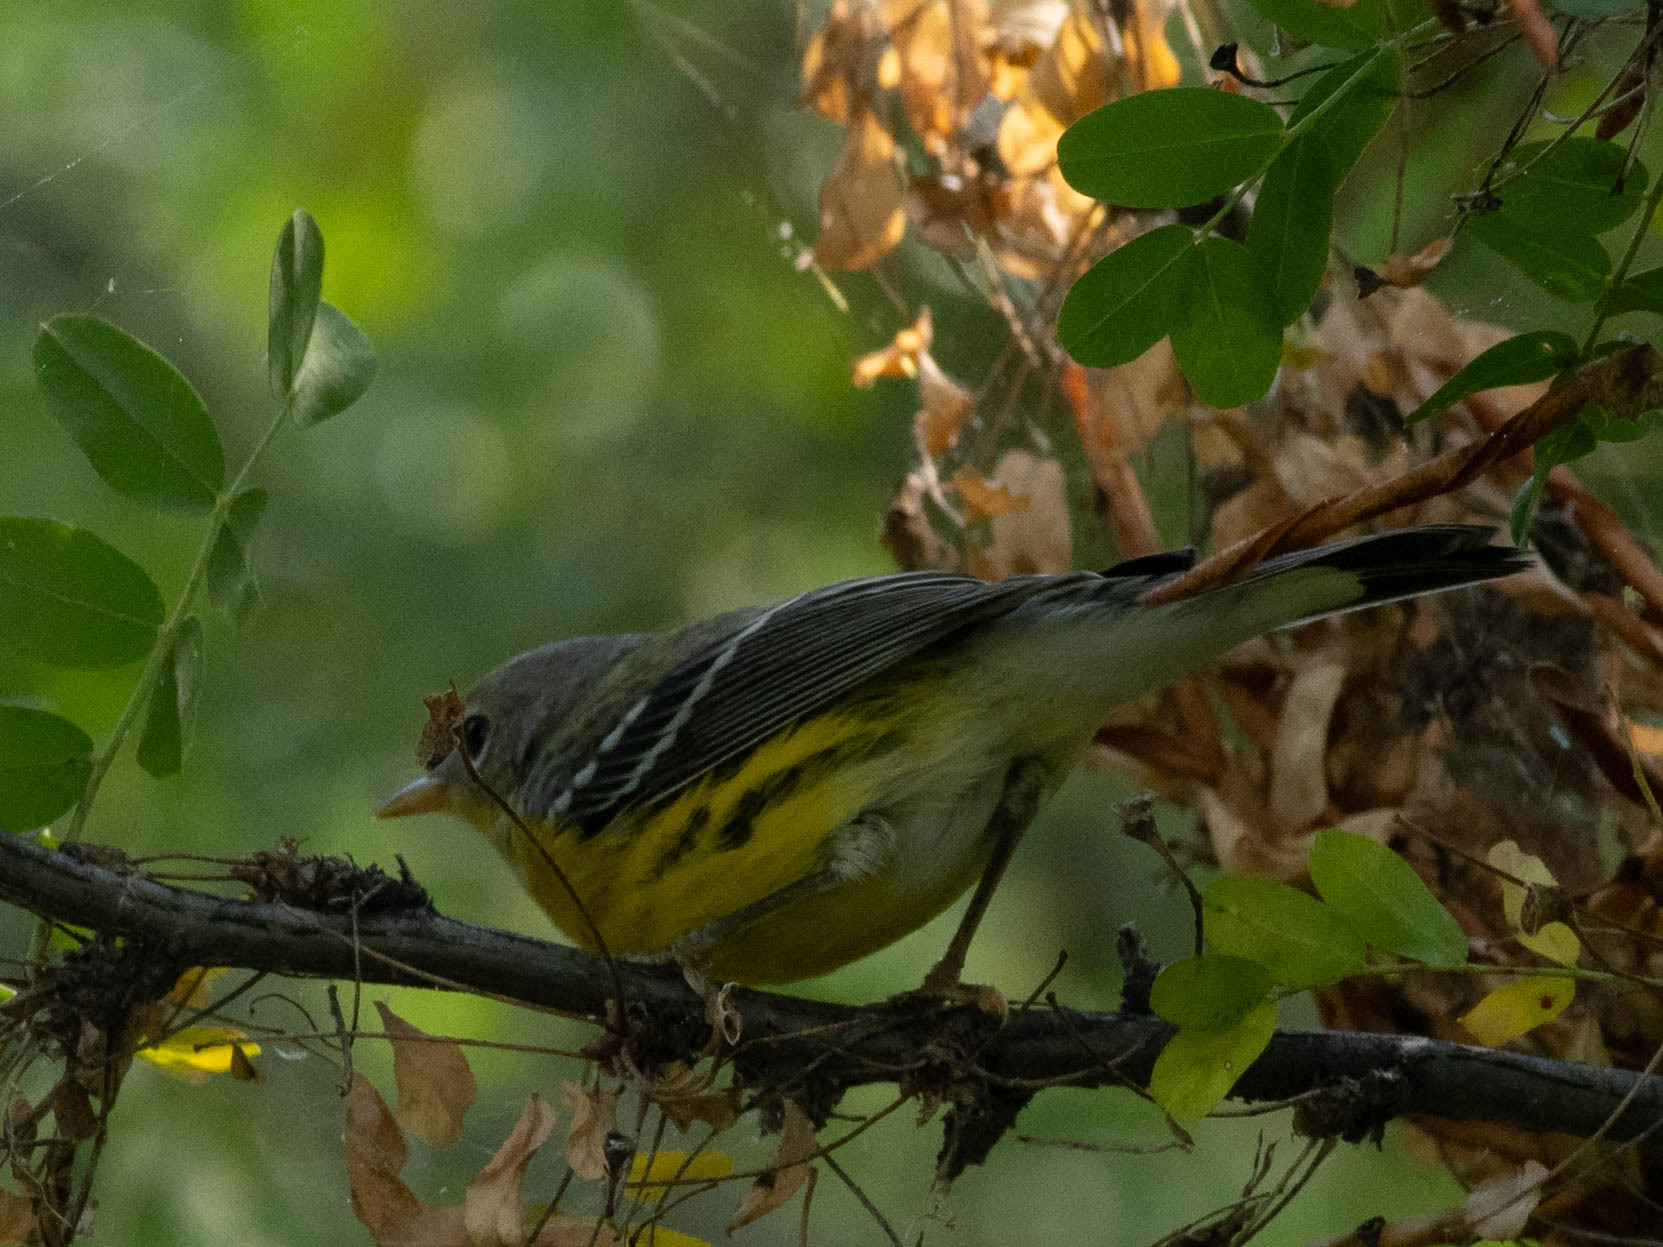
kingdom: Animalia
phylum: Chordata
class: Aves
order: Passeriformes
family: Parulidae
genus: Setophaga
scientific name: Setophaga magnolia
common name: Magnolia warbler
